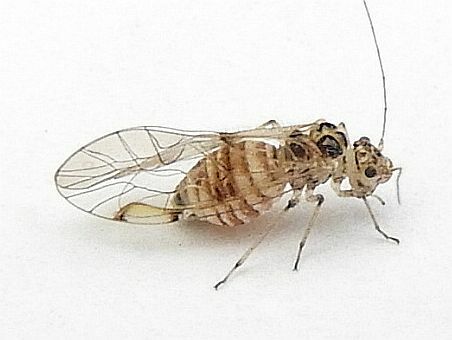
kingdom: Animalia
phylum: Arthropoda
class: Insecta
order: Psocodea
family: Dasydemellidae
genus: Teliapsocus
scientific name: Teliapsocus conterminus
